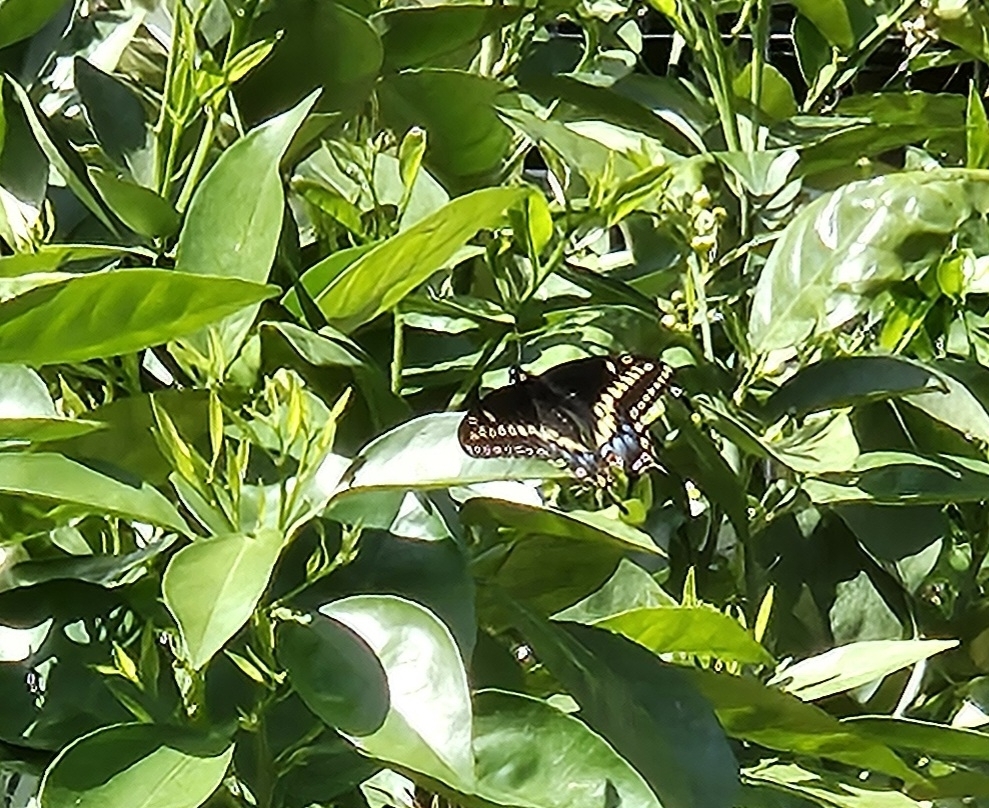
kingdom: Animalia
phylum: Arthropoda
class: Insecta
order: Lepidoptera
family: Papilionidae
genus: Papilio
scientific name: Papilio polyxenes
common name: Black swallowtail
